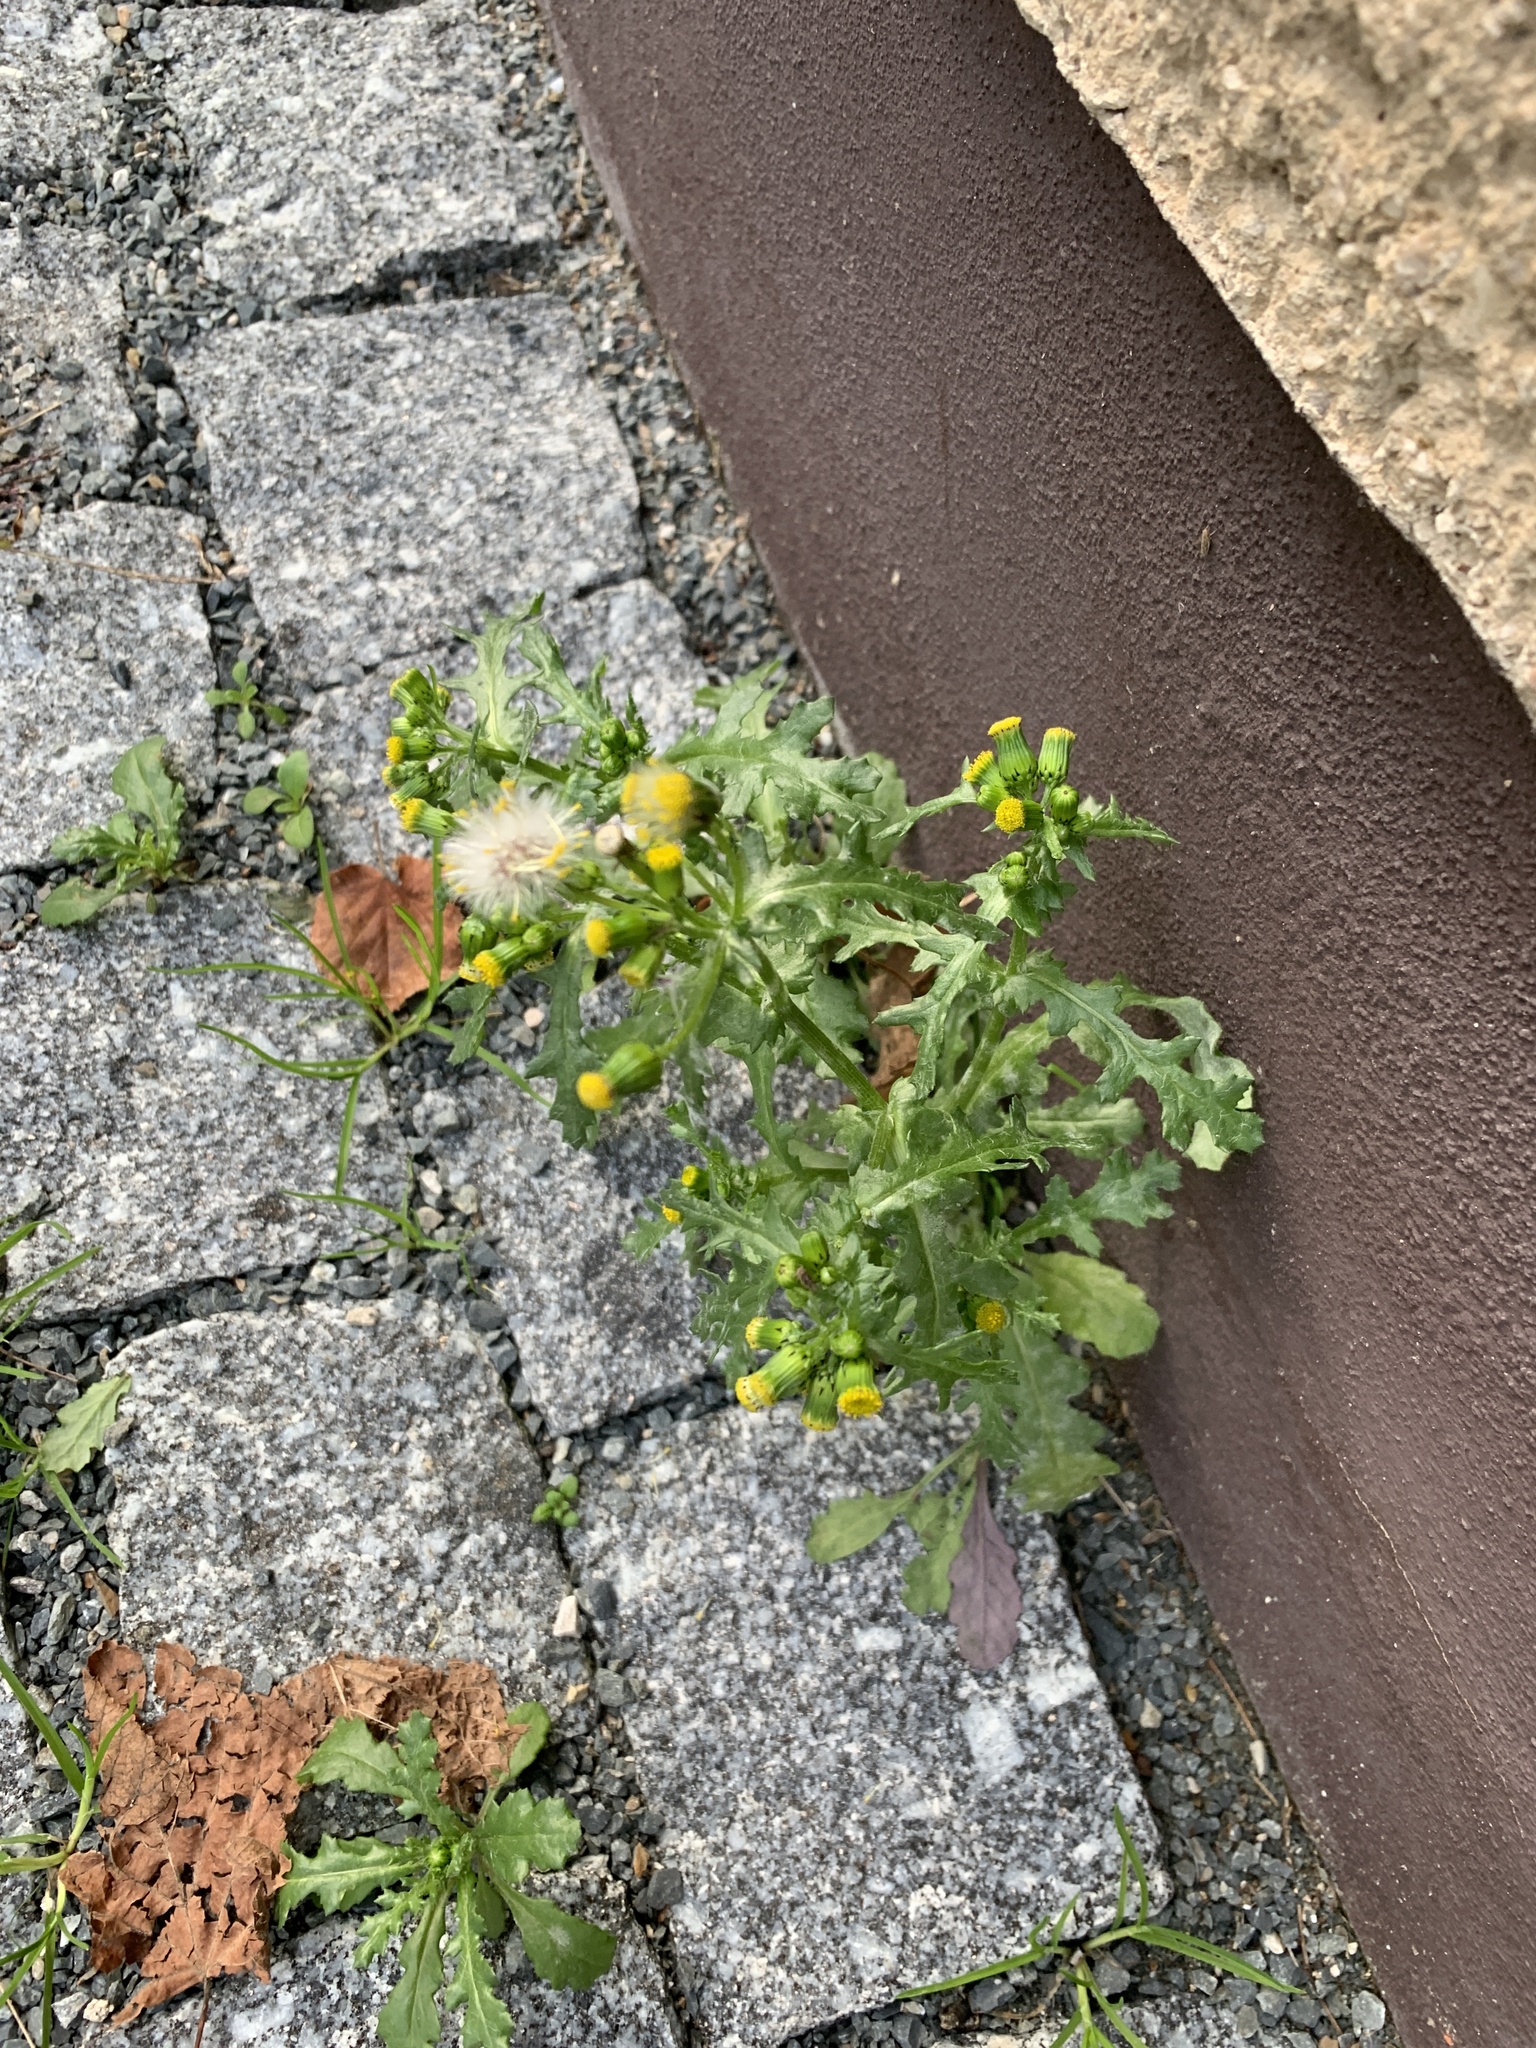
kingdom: Plantae
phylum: Tracheophyta
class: Magnoliopsida
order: Asterales
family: Asteraceae
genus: Senecio
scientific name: Senecio vulgaris
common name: Old-man-in-the-spring
